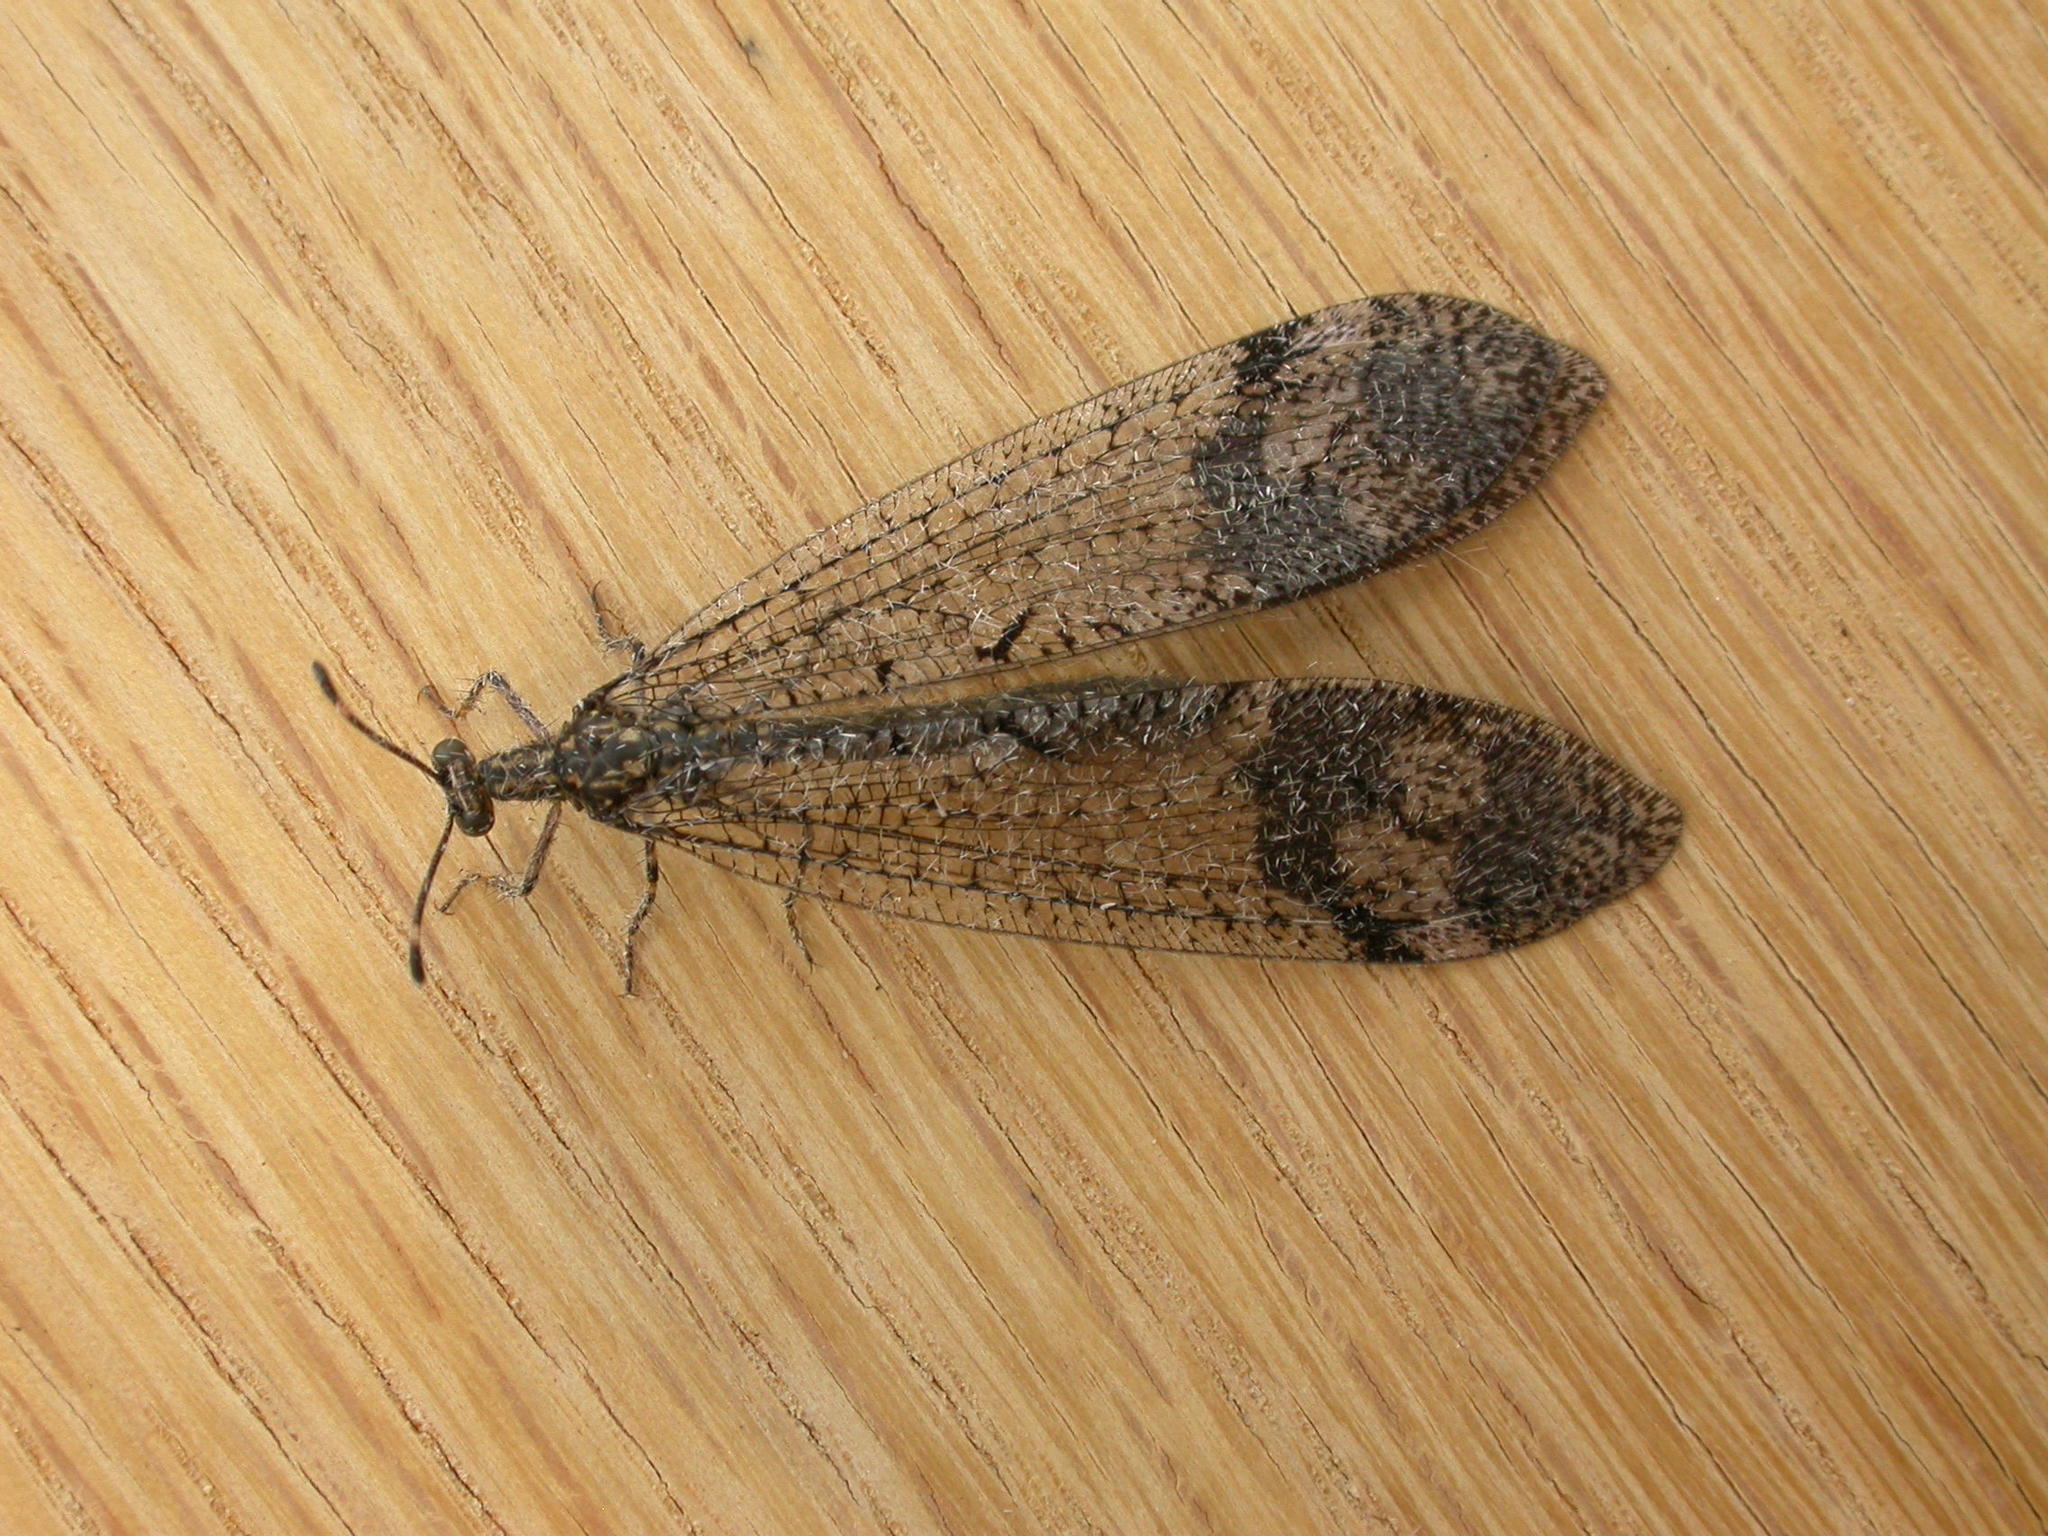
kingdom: Animalia
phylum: Arthropoda
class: Insecta
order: Neuroptera
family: Myrmeleontidae
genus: Glenoleon
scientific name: Glenoleon pulchellus
